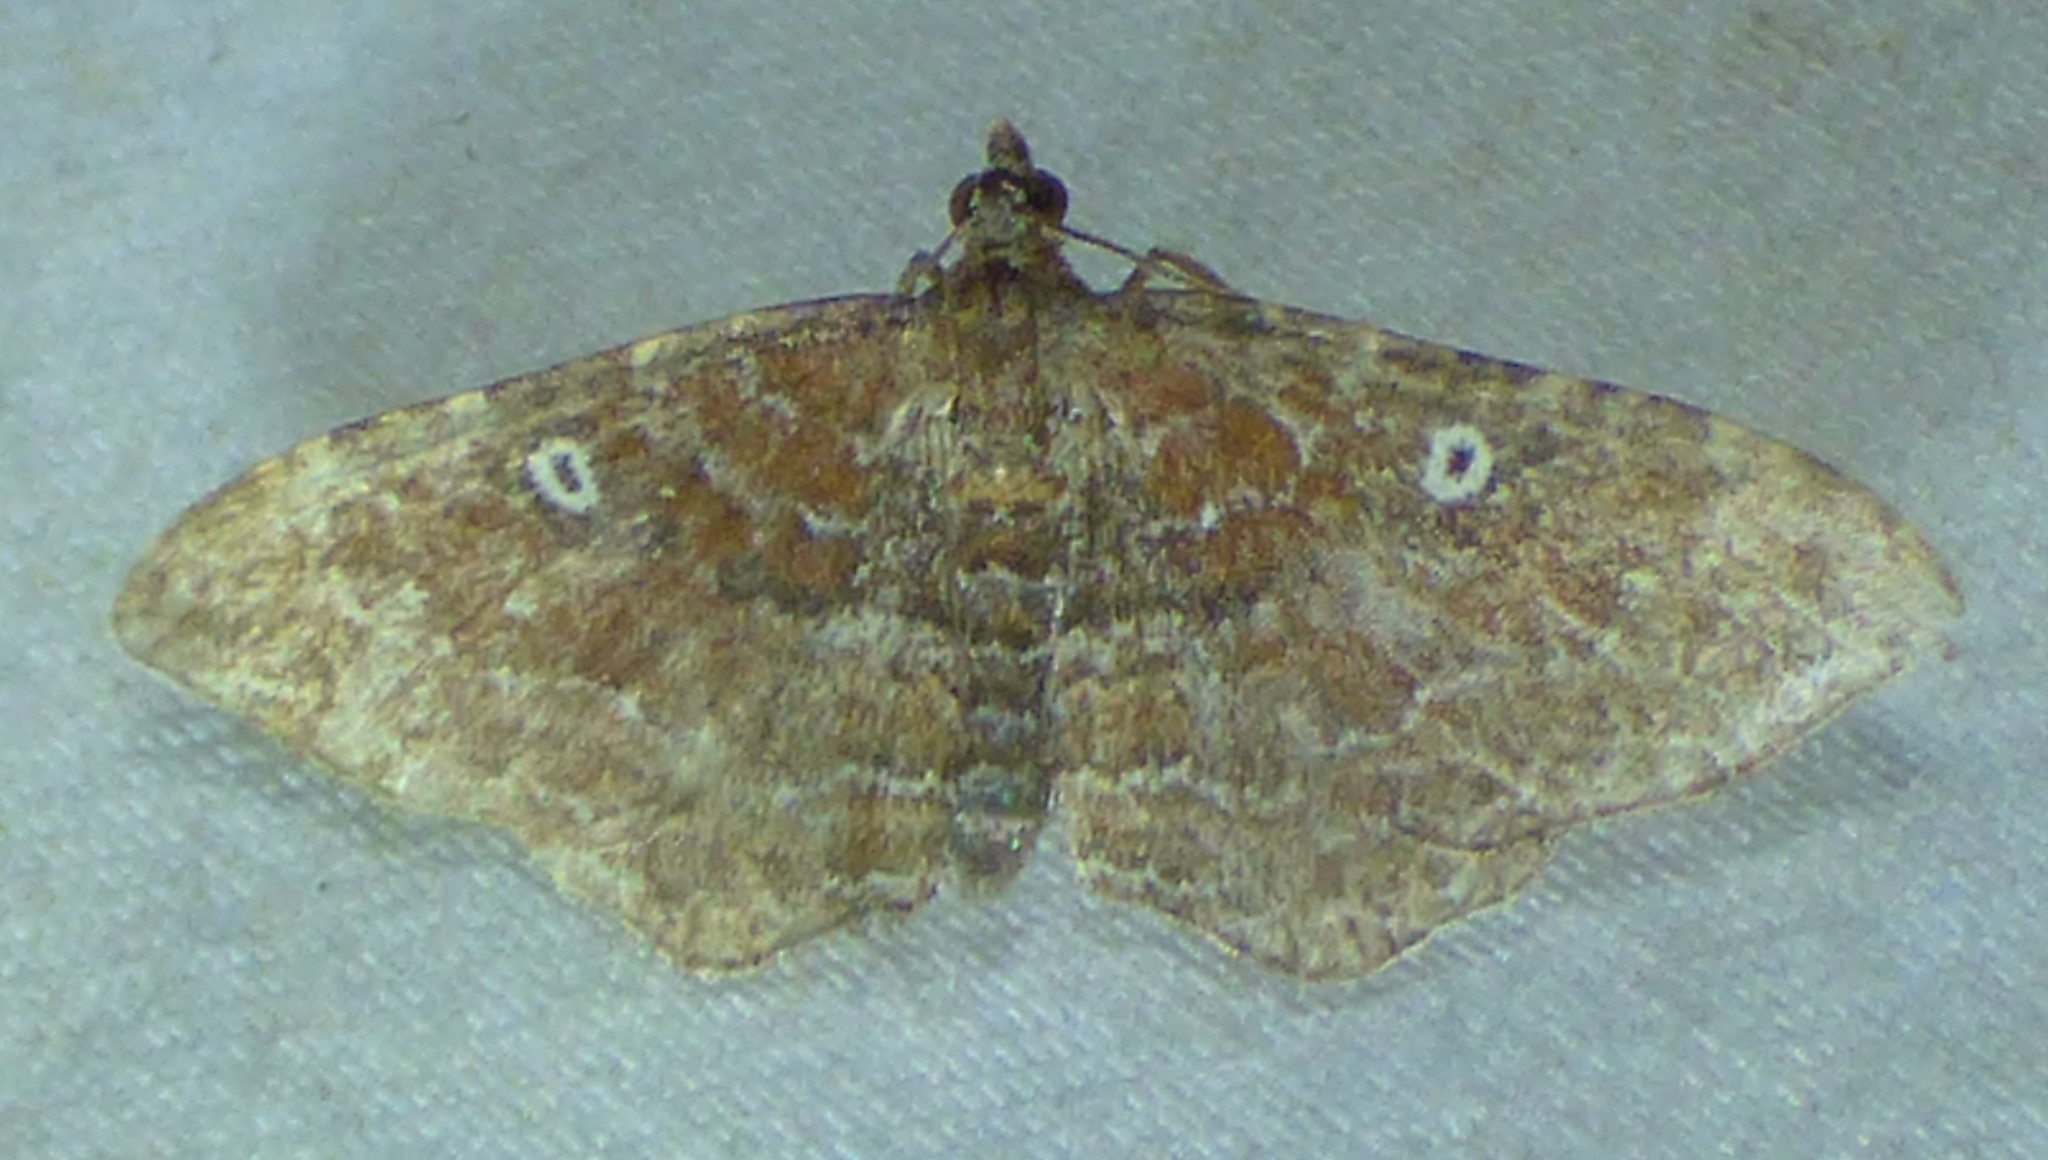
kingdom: Animalia
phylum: Arthropoda
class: Insecta
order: Lepidoptera
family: Geometridae
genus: Orthonama
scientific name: Orthonama obstipata
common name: The gem
